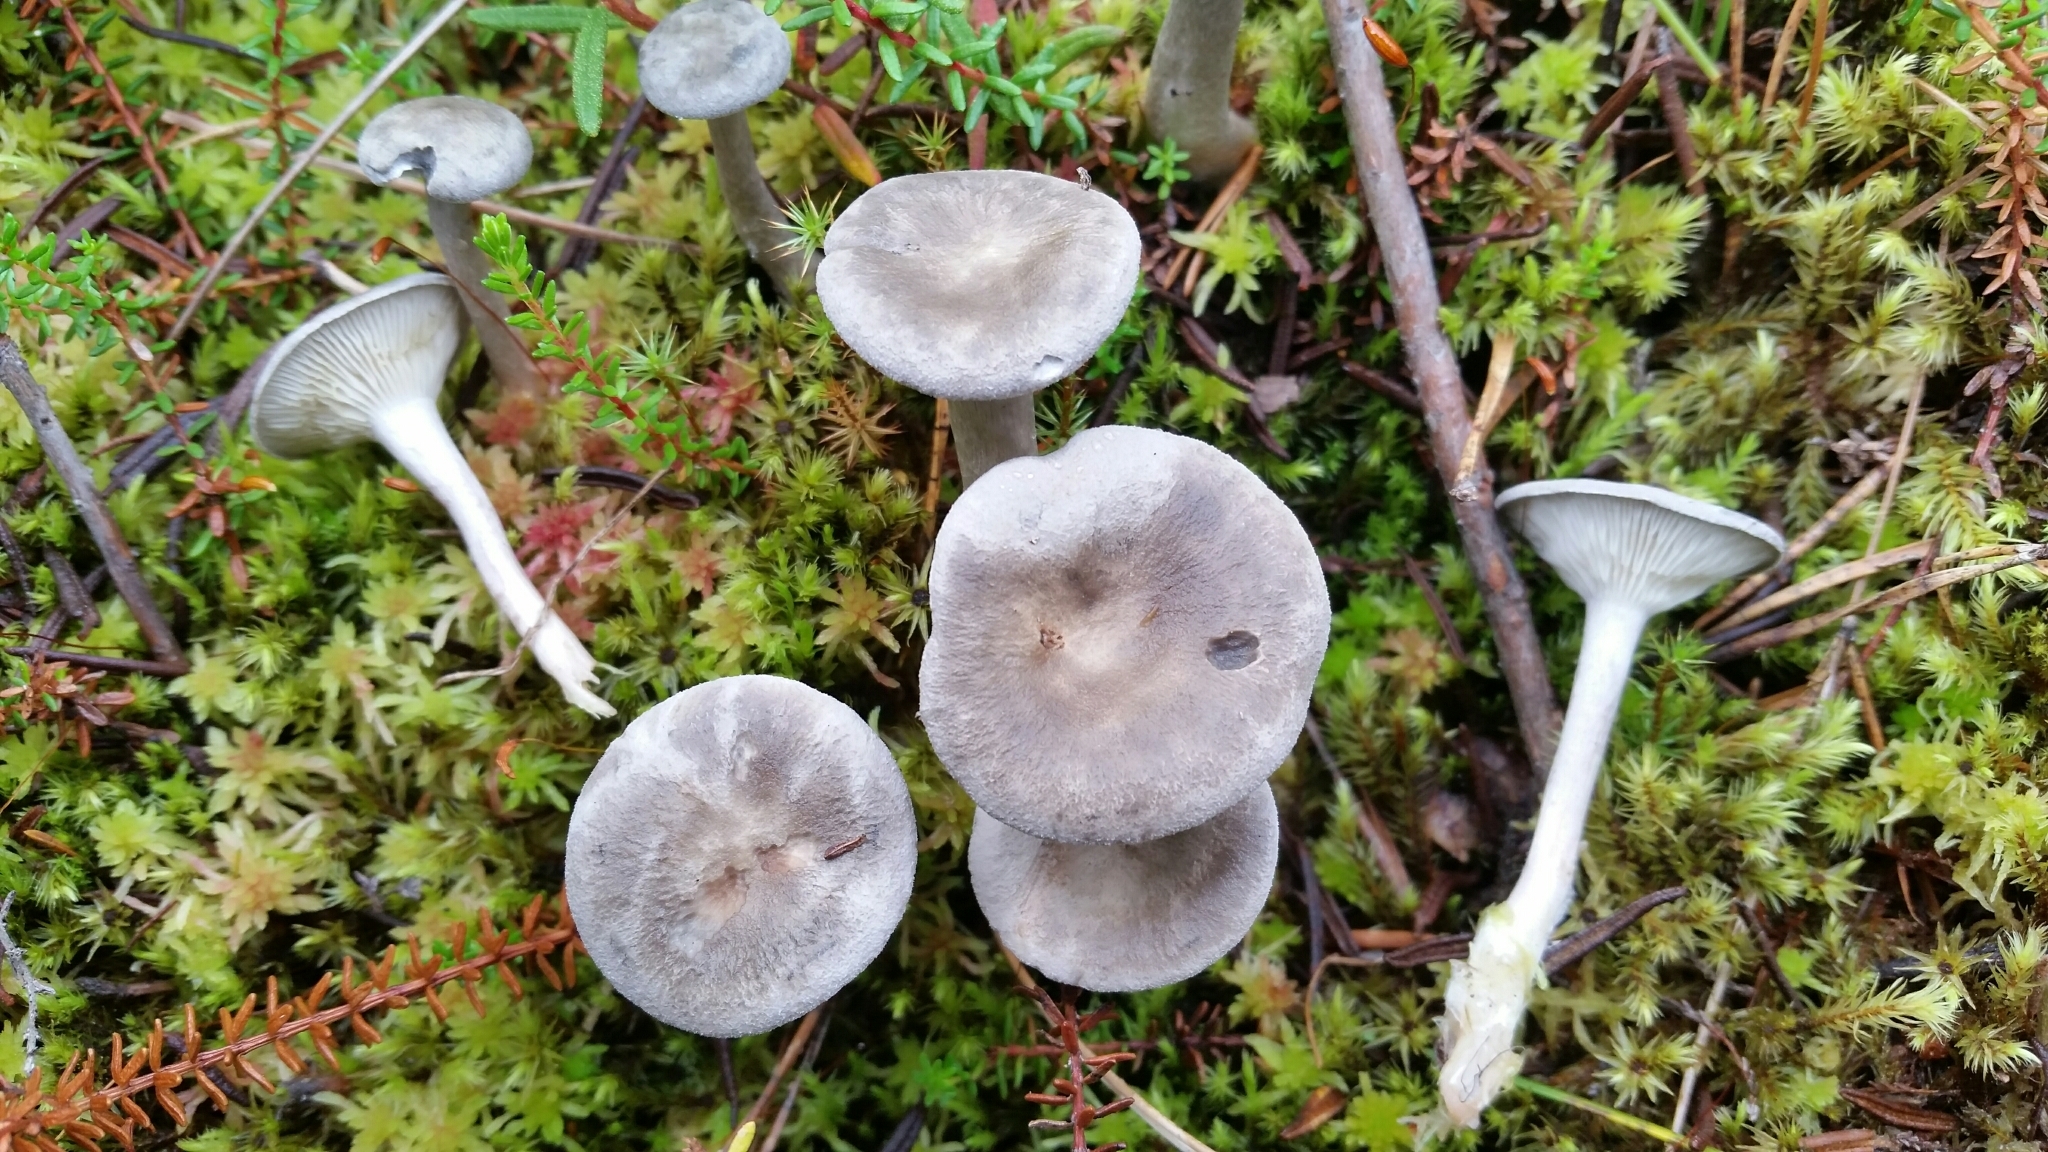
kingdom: Fungi
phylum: Basidiomycota
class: Agaricomycetes
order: Agaricales
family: Hygrophoraceae
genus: Cantharellula
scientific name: Cantharellula umbonata
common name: The humpback
